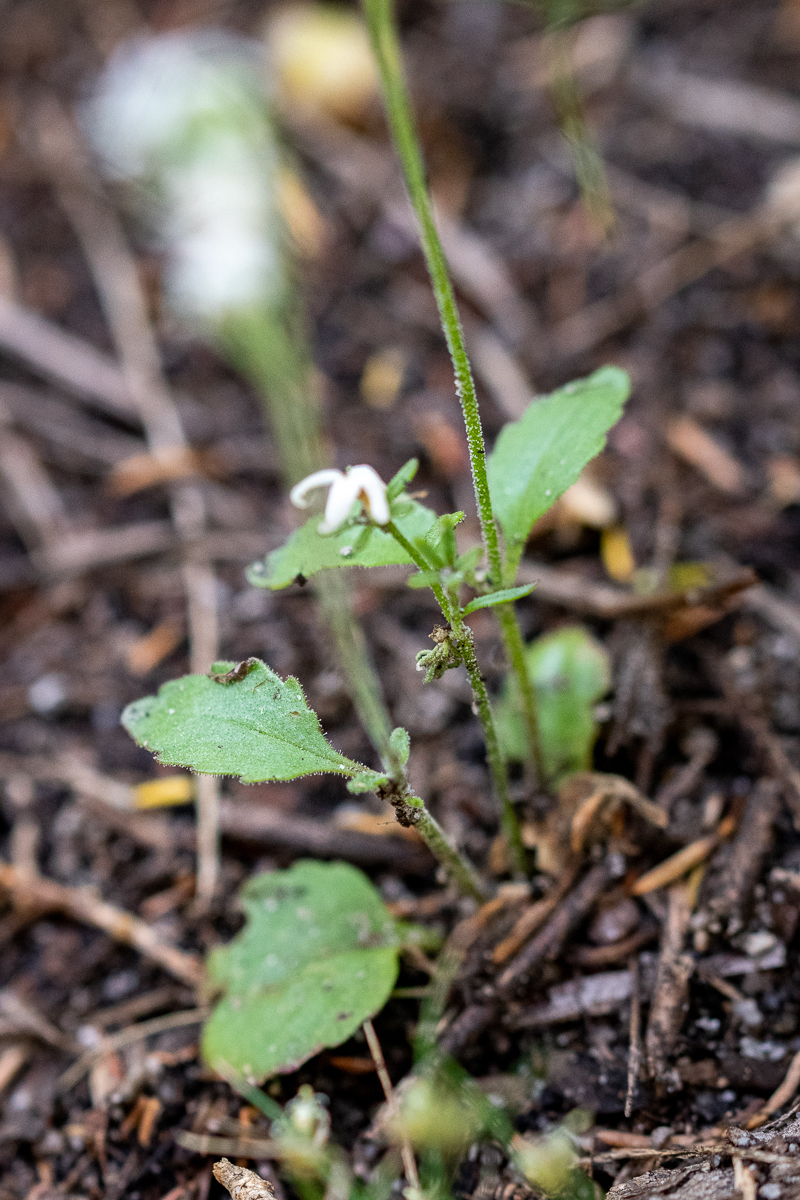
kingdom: Plantae
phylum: Tracheophyta
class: Magnoliopsida
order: Lamiales
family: Scrophulariaceae
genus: Manulea
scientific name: Manulea exigua
